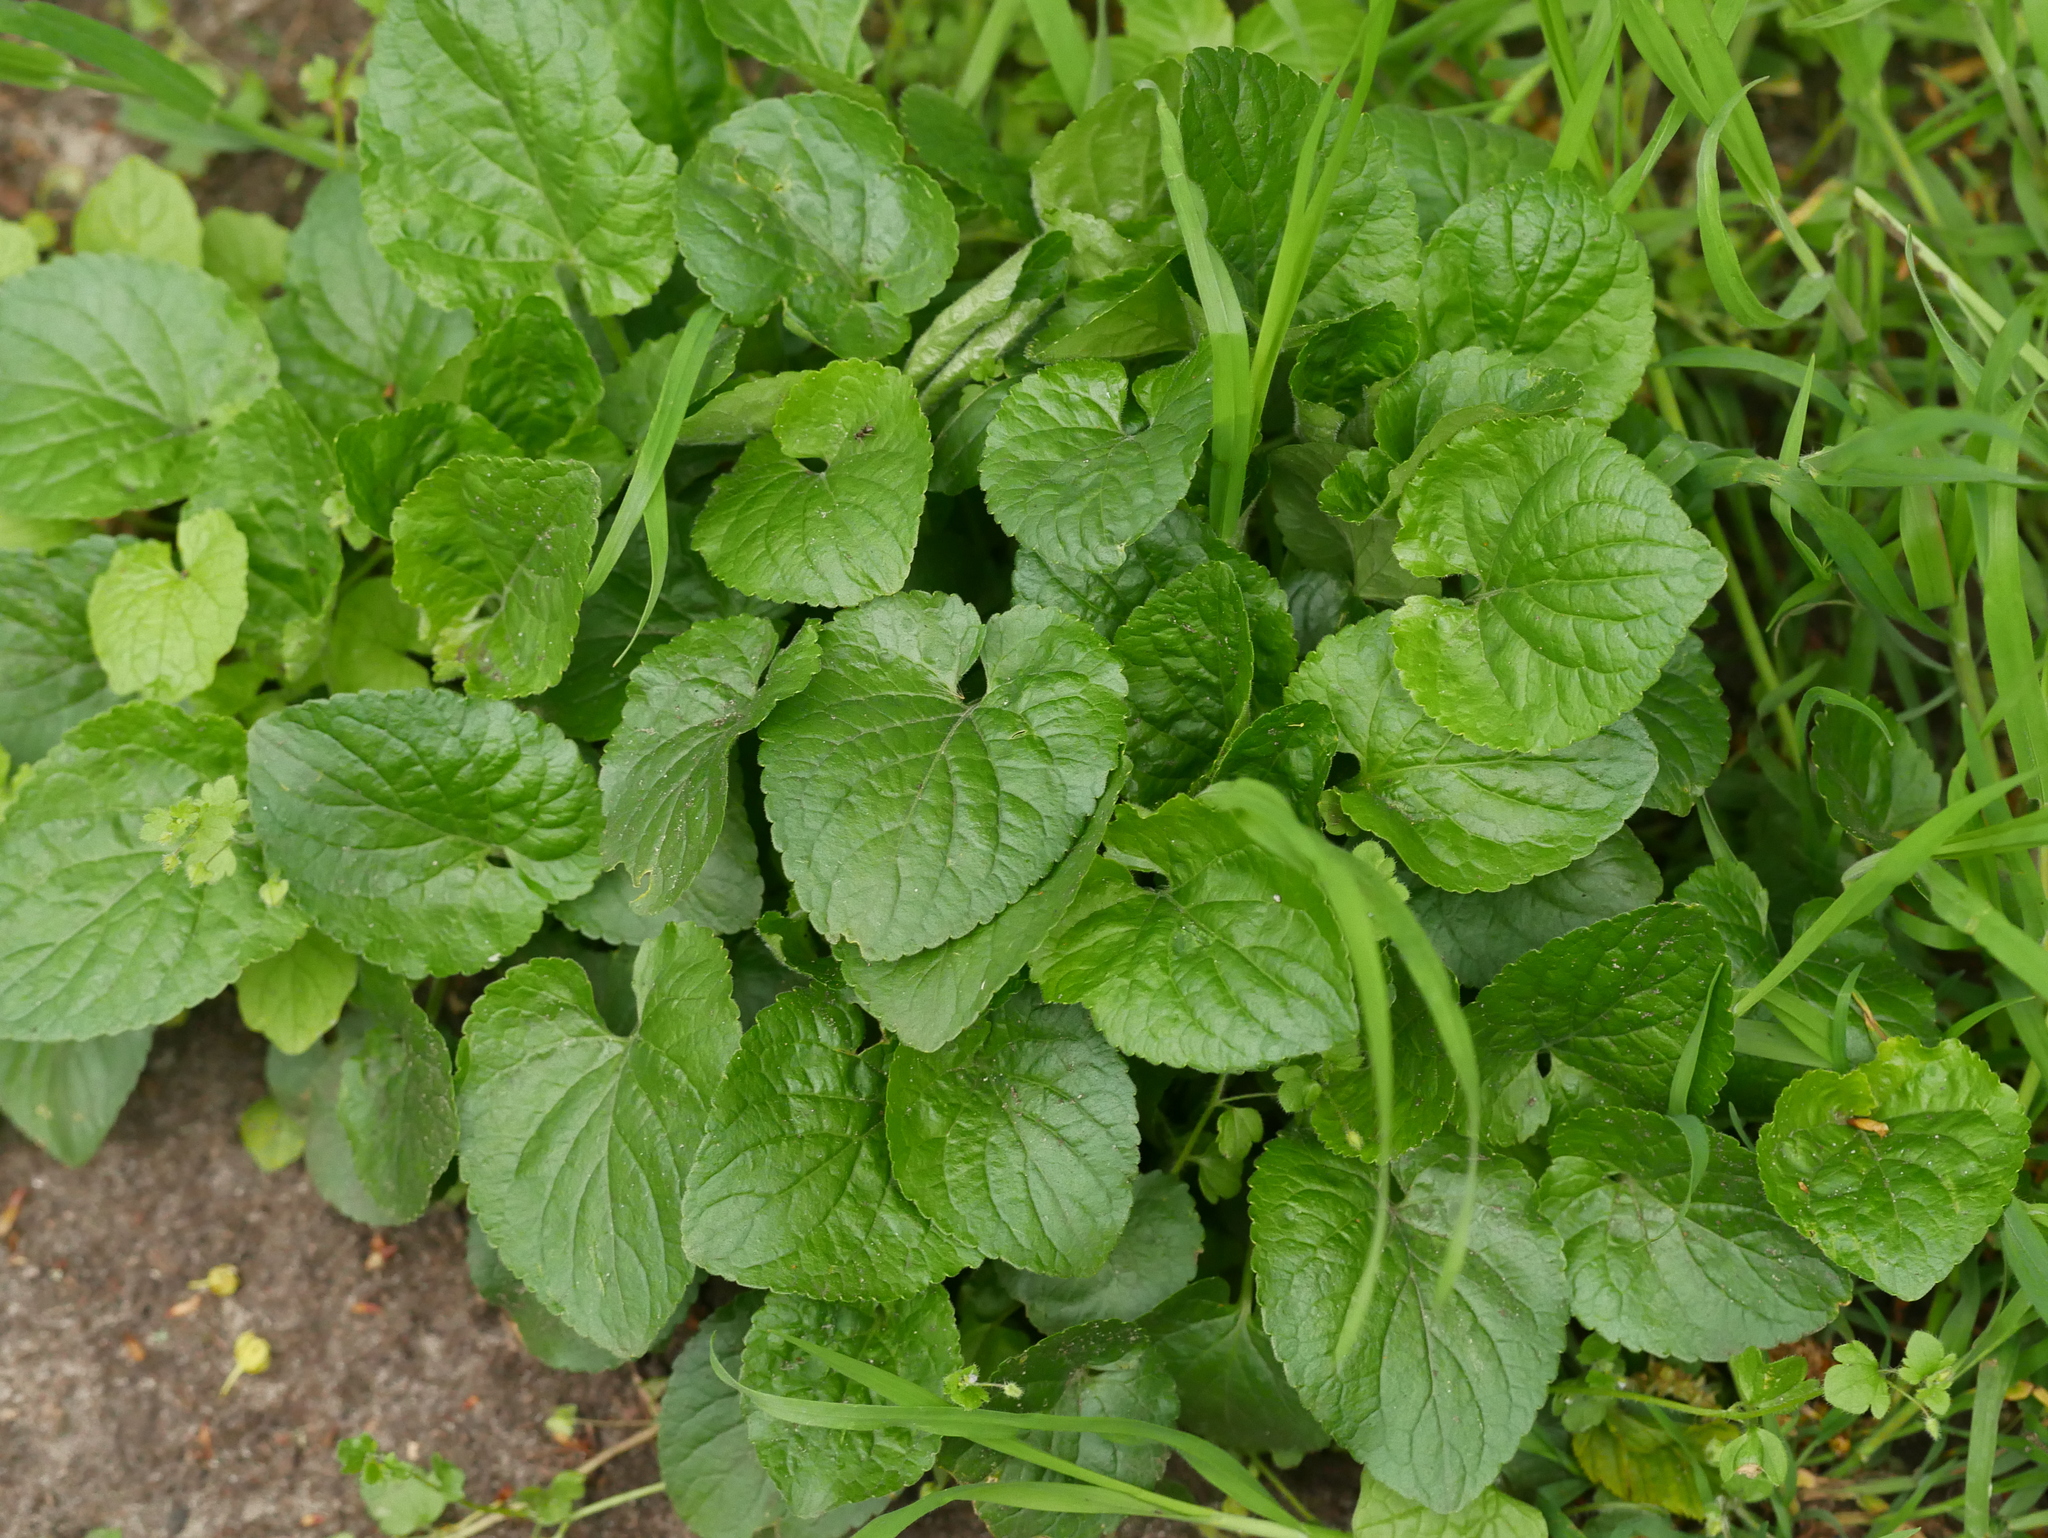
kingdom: Plantae
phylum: Tracheophyta
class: Magnoliopsida
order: Malpighiales
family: Violaceae
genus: Viola
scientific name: Viola odorata
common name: Sweet violet
